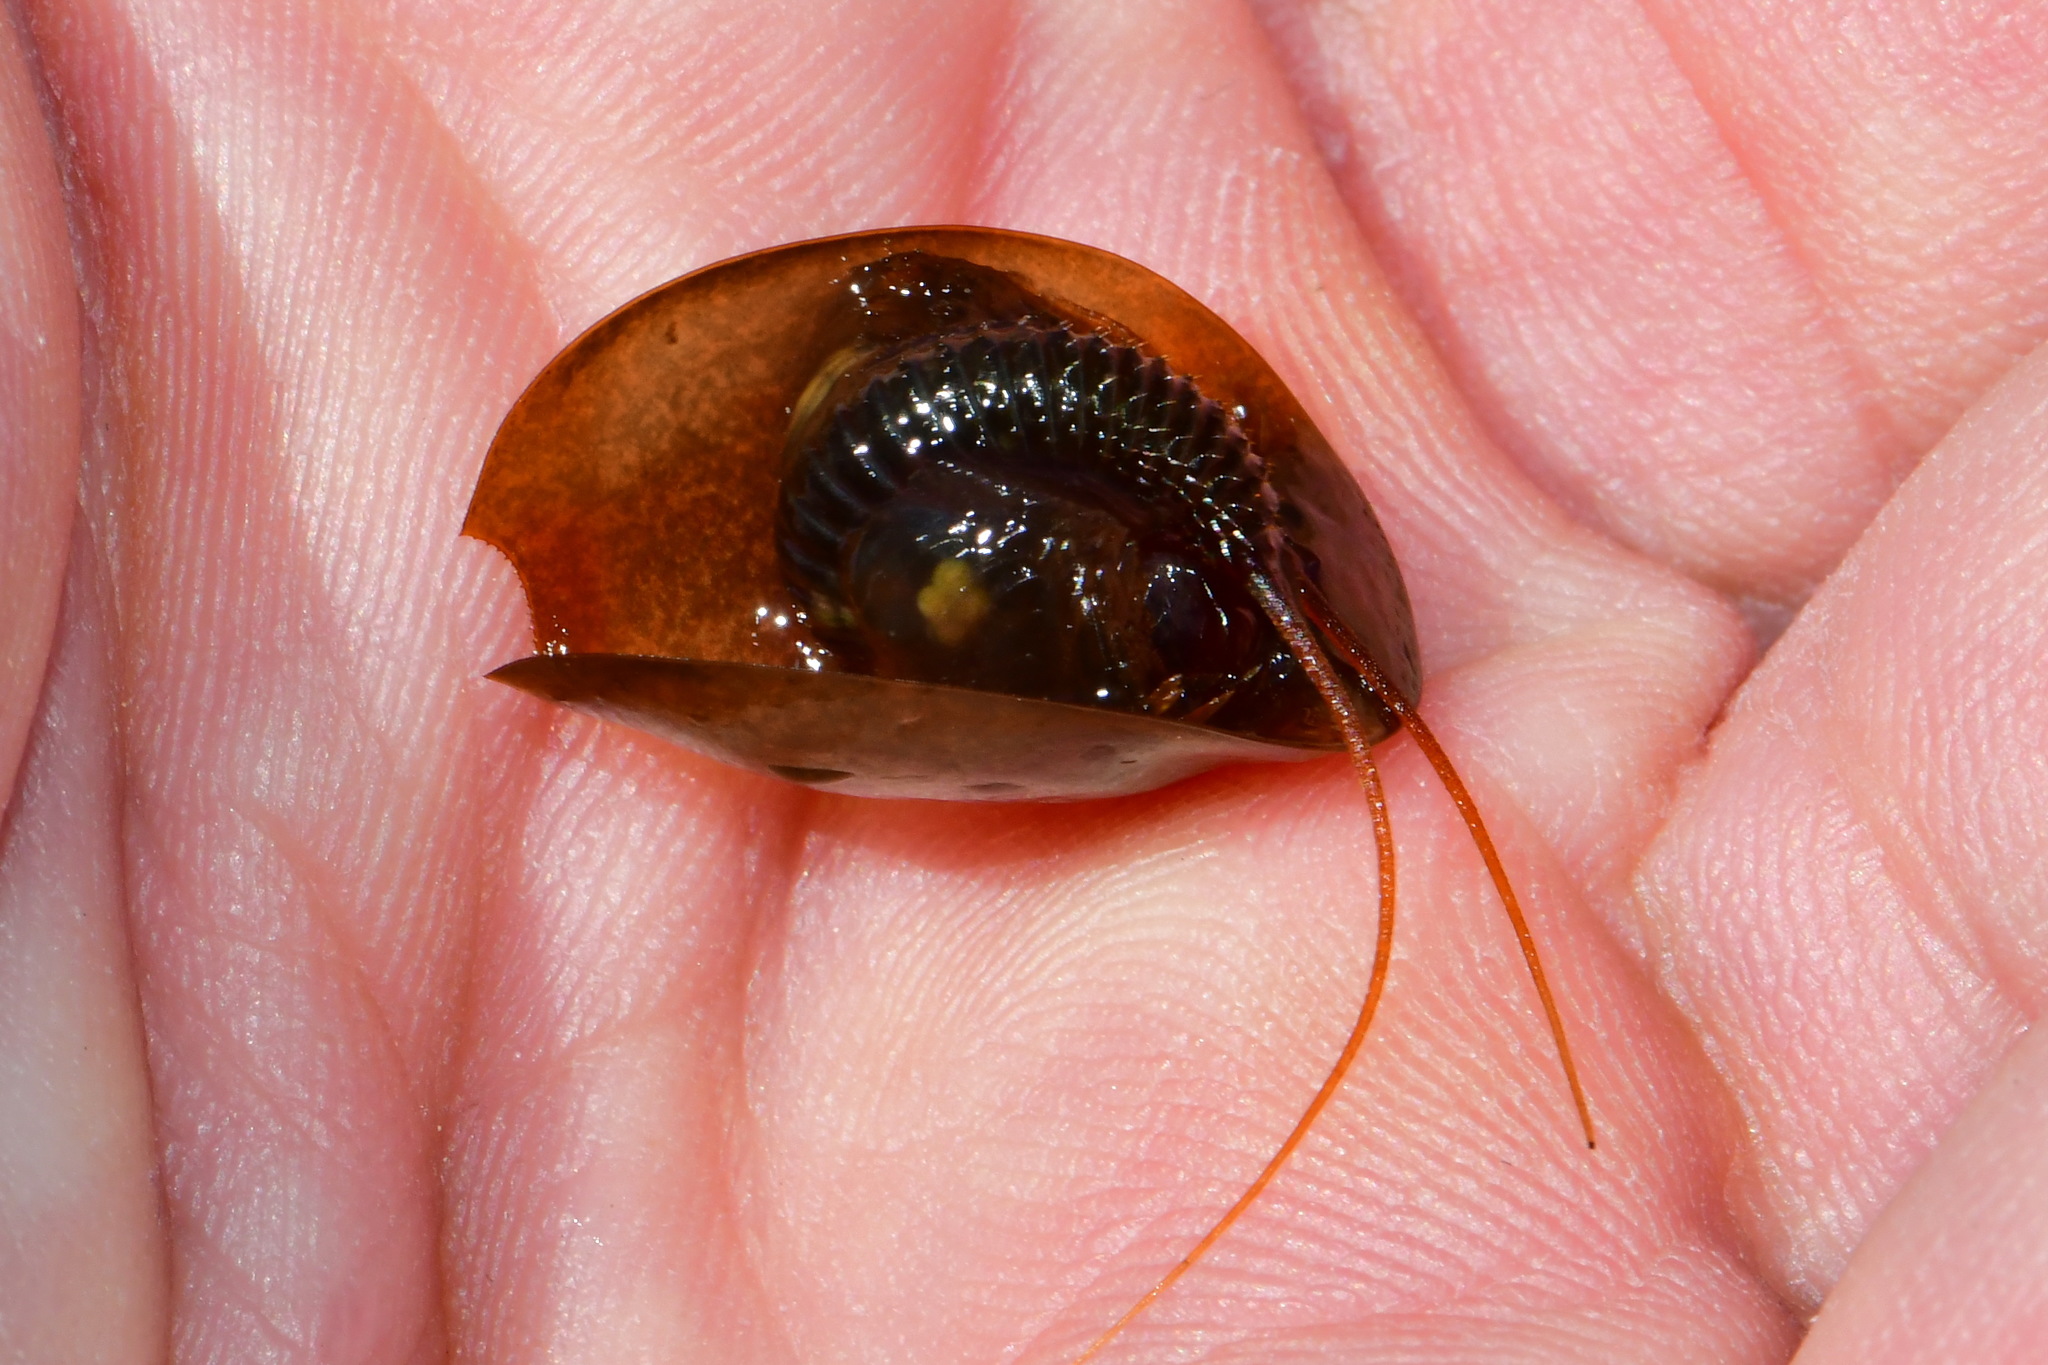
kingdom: Animalia
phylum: Arthropoda
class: Branchiopoda
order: Notostraca
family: Triopsidae
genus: Lepidurus
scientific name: Lepidurus apus
